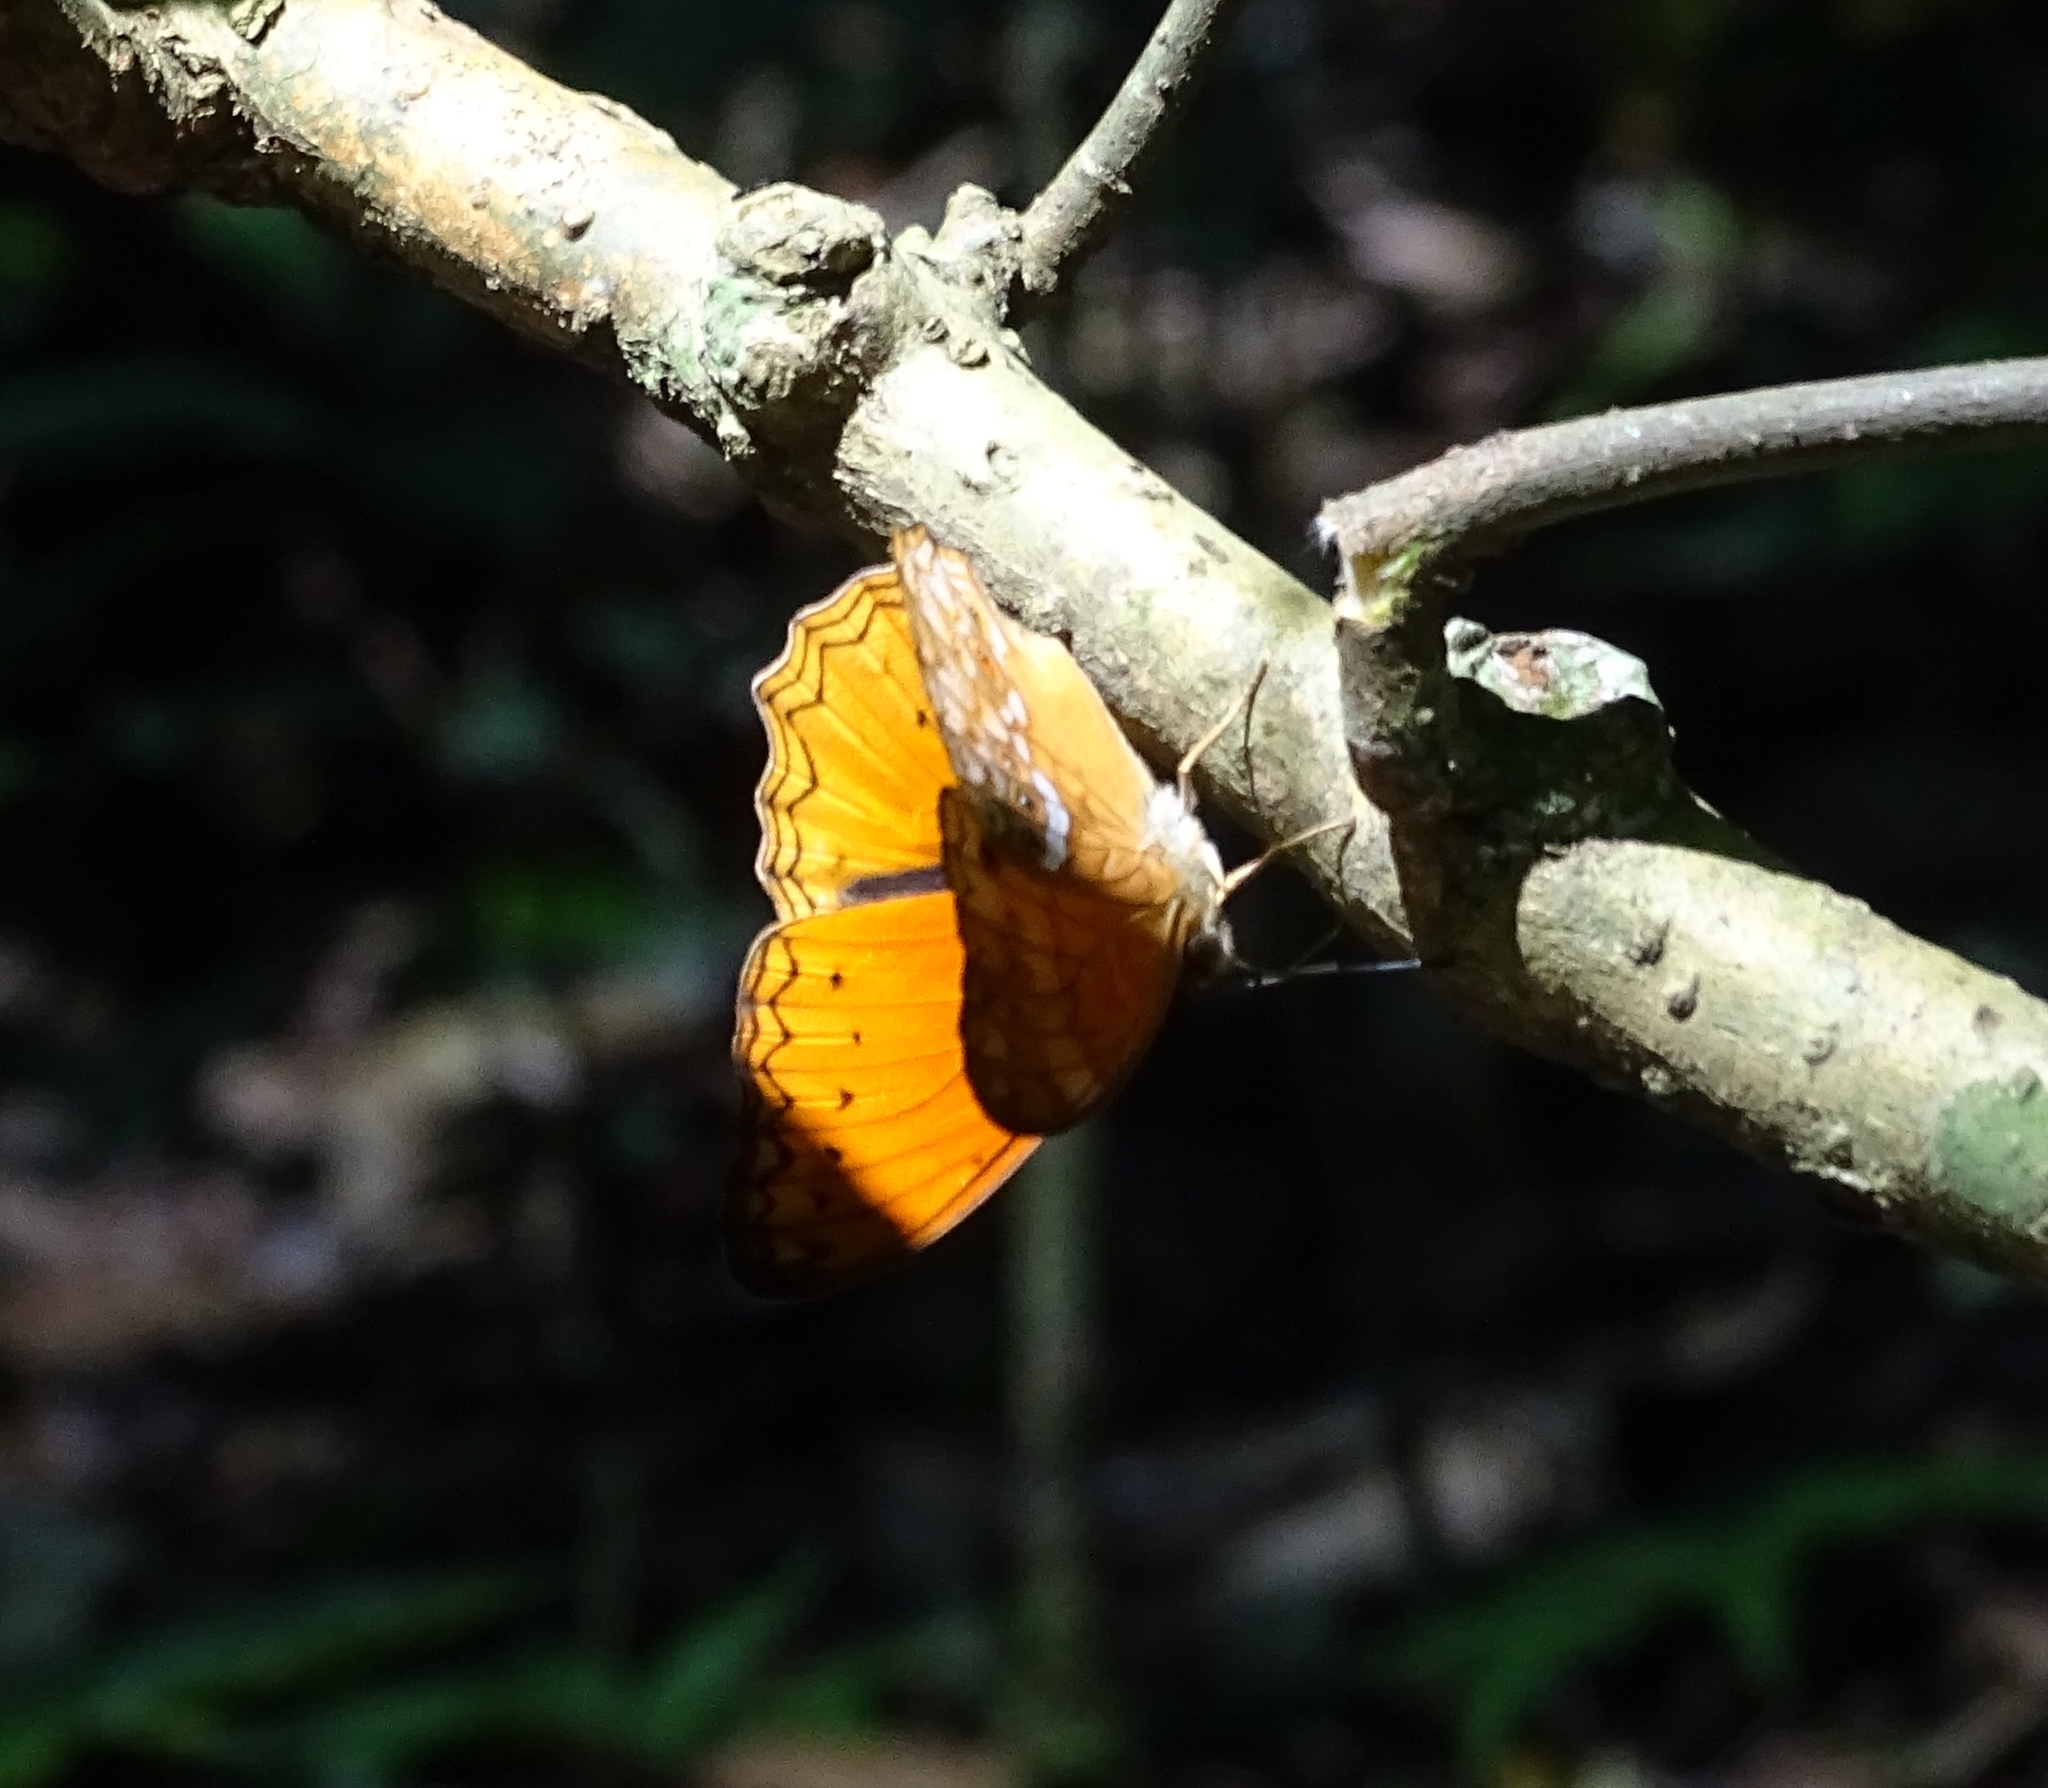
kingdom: Animalia
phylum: Arthropoda
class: Insecta
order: Lepidoptera
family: Nymphalidae
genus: Lachnoptera
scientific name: Lachnoptera iole
